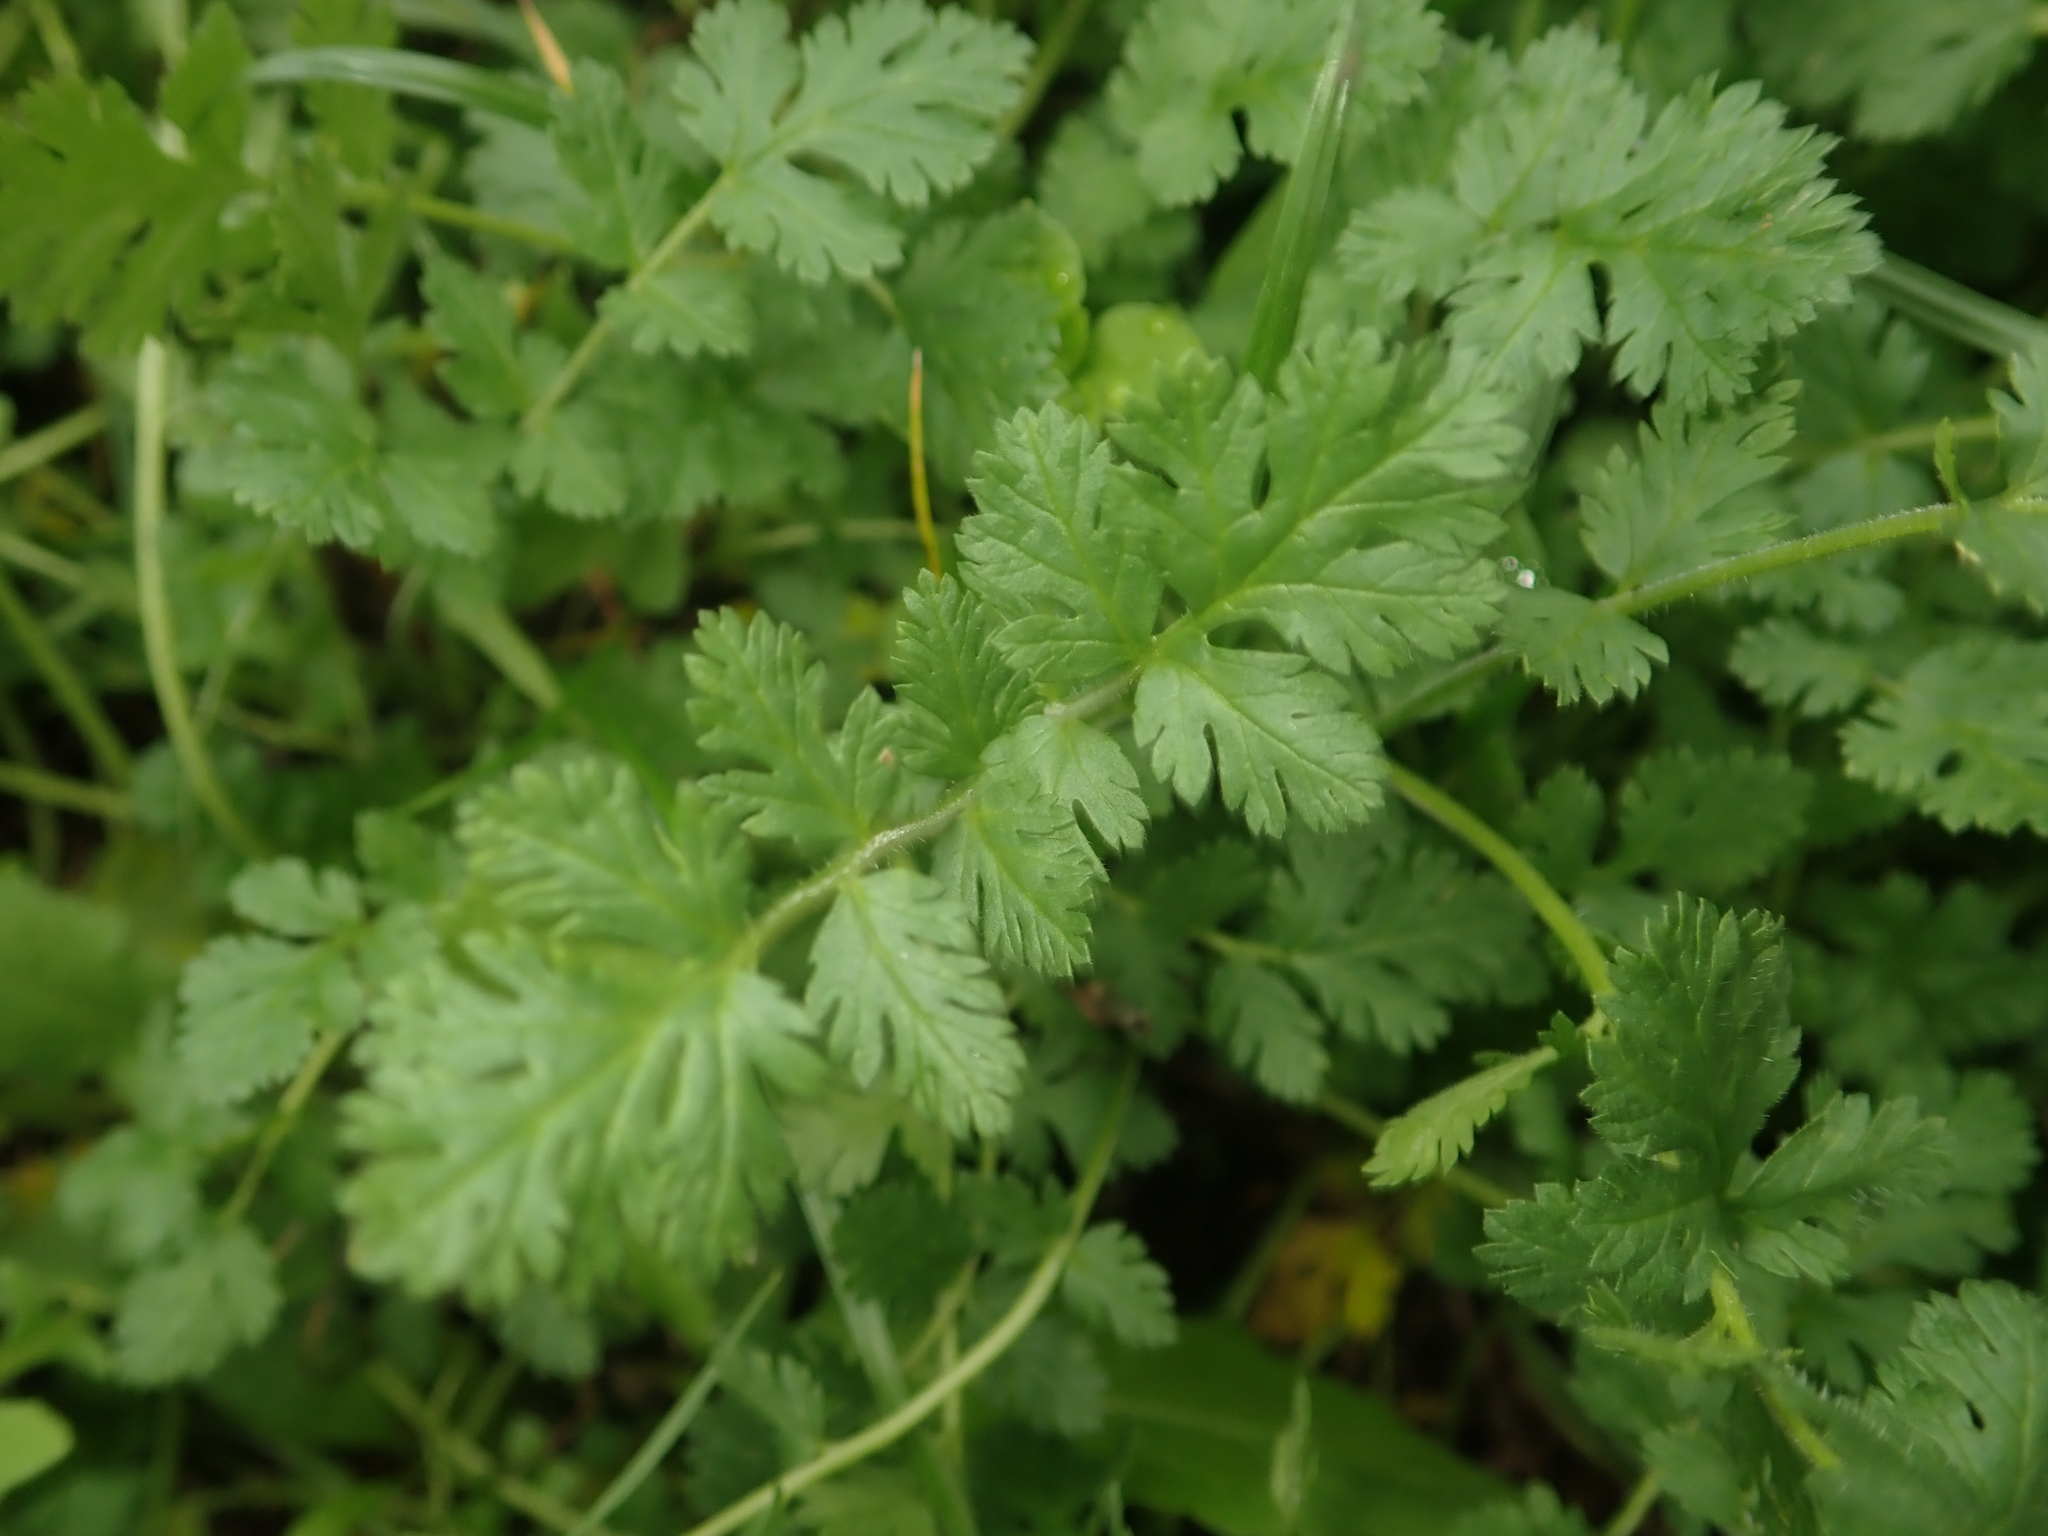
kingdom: Plantae
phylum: Tracheophyta
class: Magnoliopsida
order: Geraniales
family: Geraniaceae
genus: Erodium
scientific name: Erodium cicutarium
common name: Common stork's-bill
